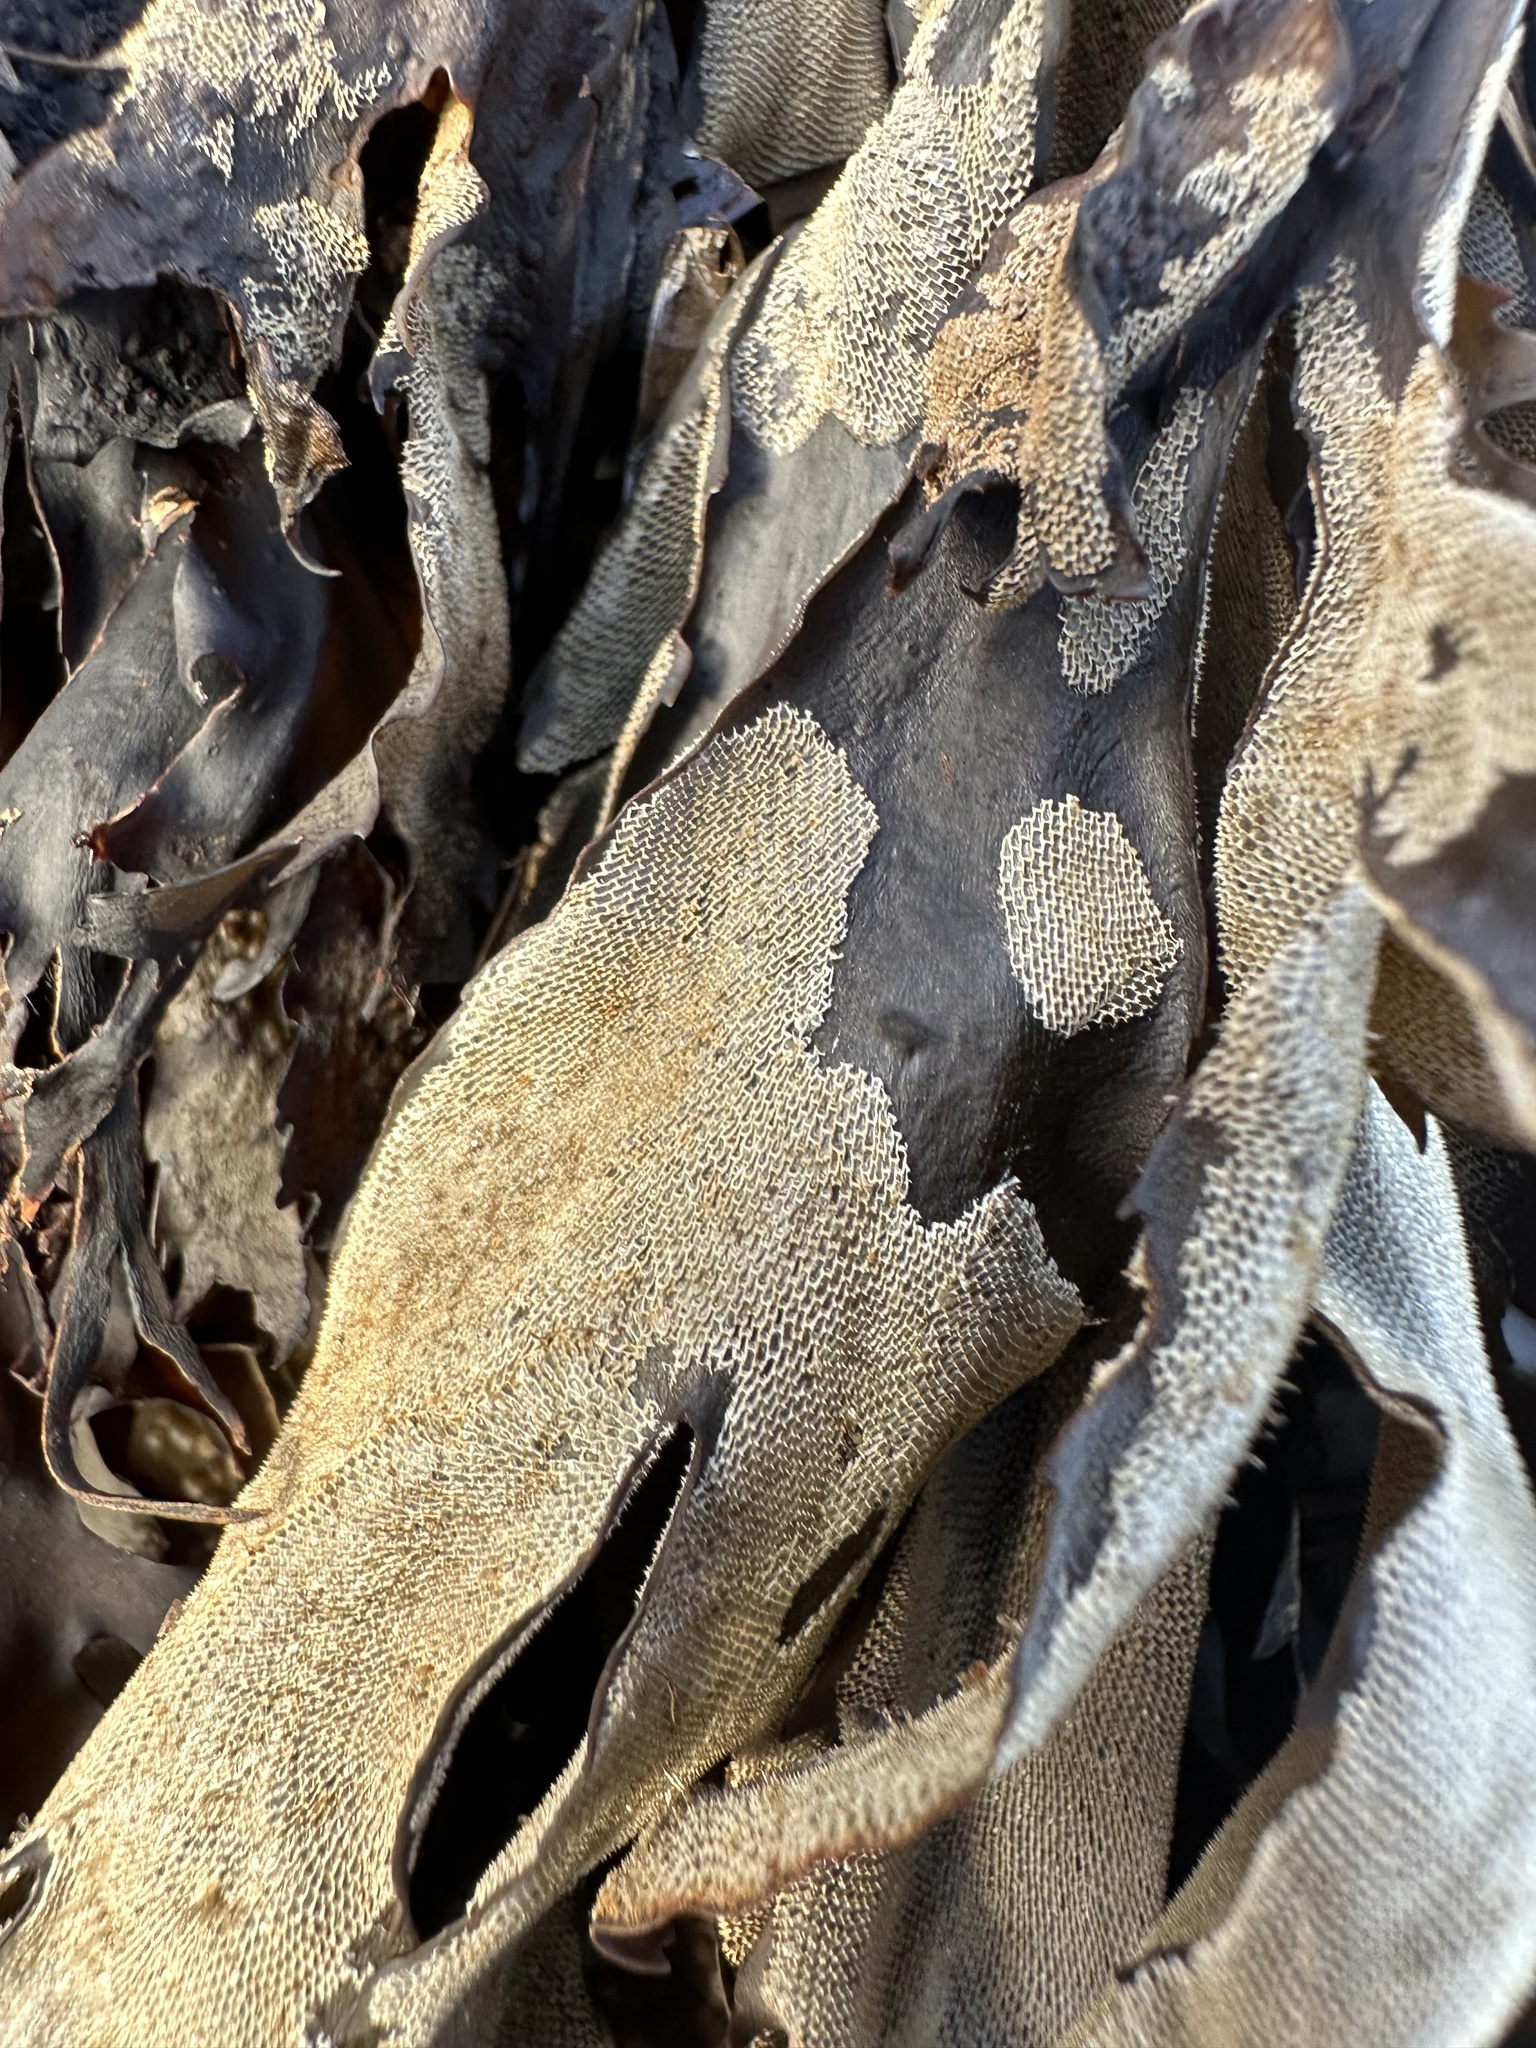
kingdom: Animalia
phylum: Bryozoa
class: Gymnolaemata
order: Cheilostomatida
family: Membraniporidae
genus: Membranipora
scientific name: Membranipora membranacea
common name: Sea mat
